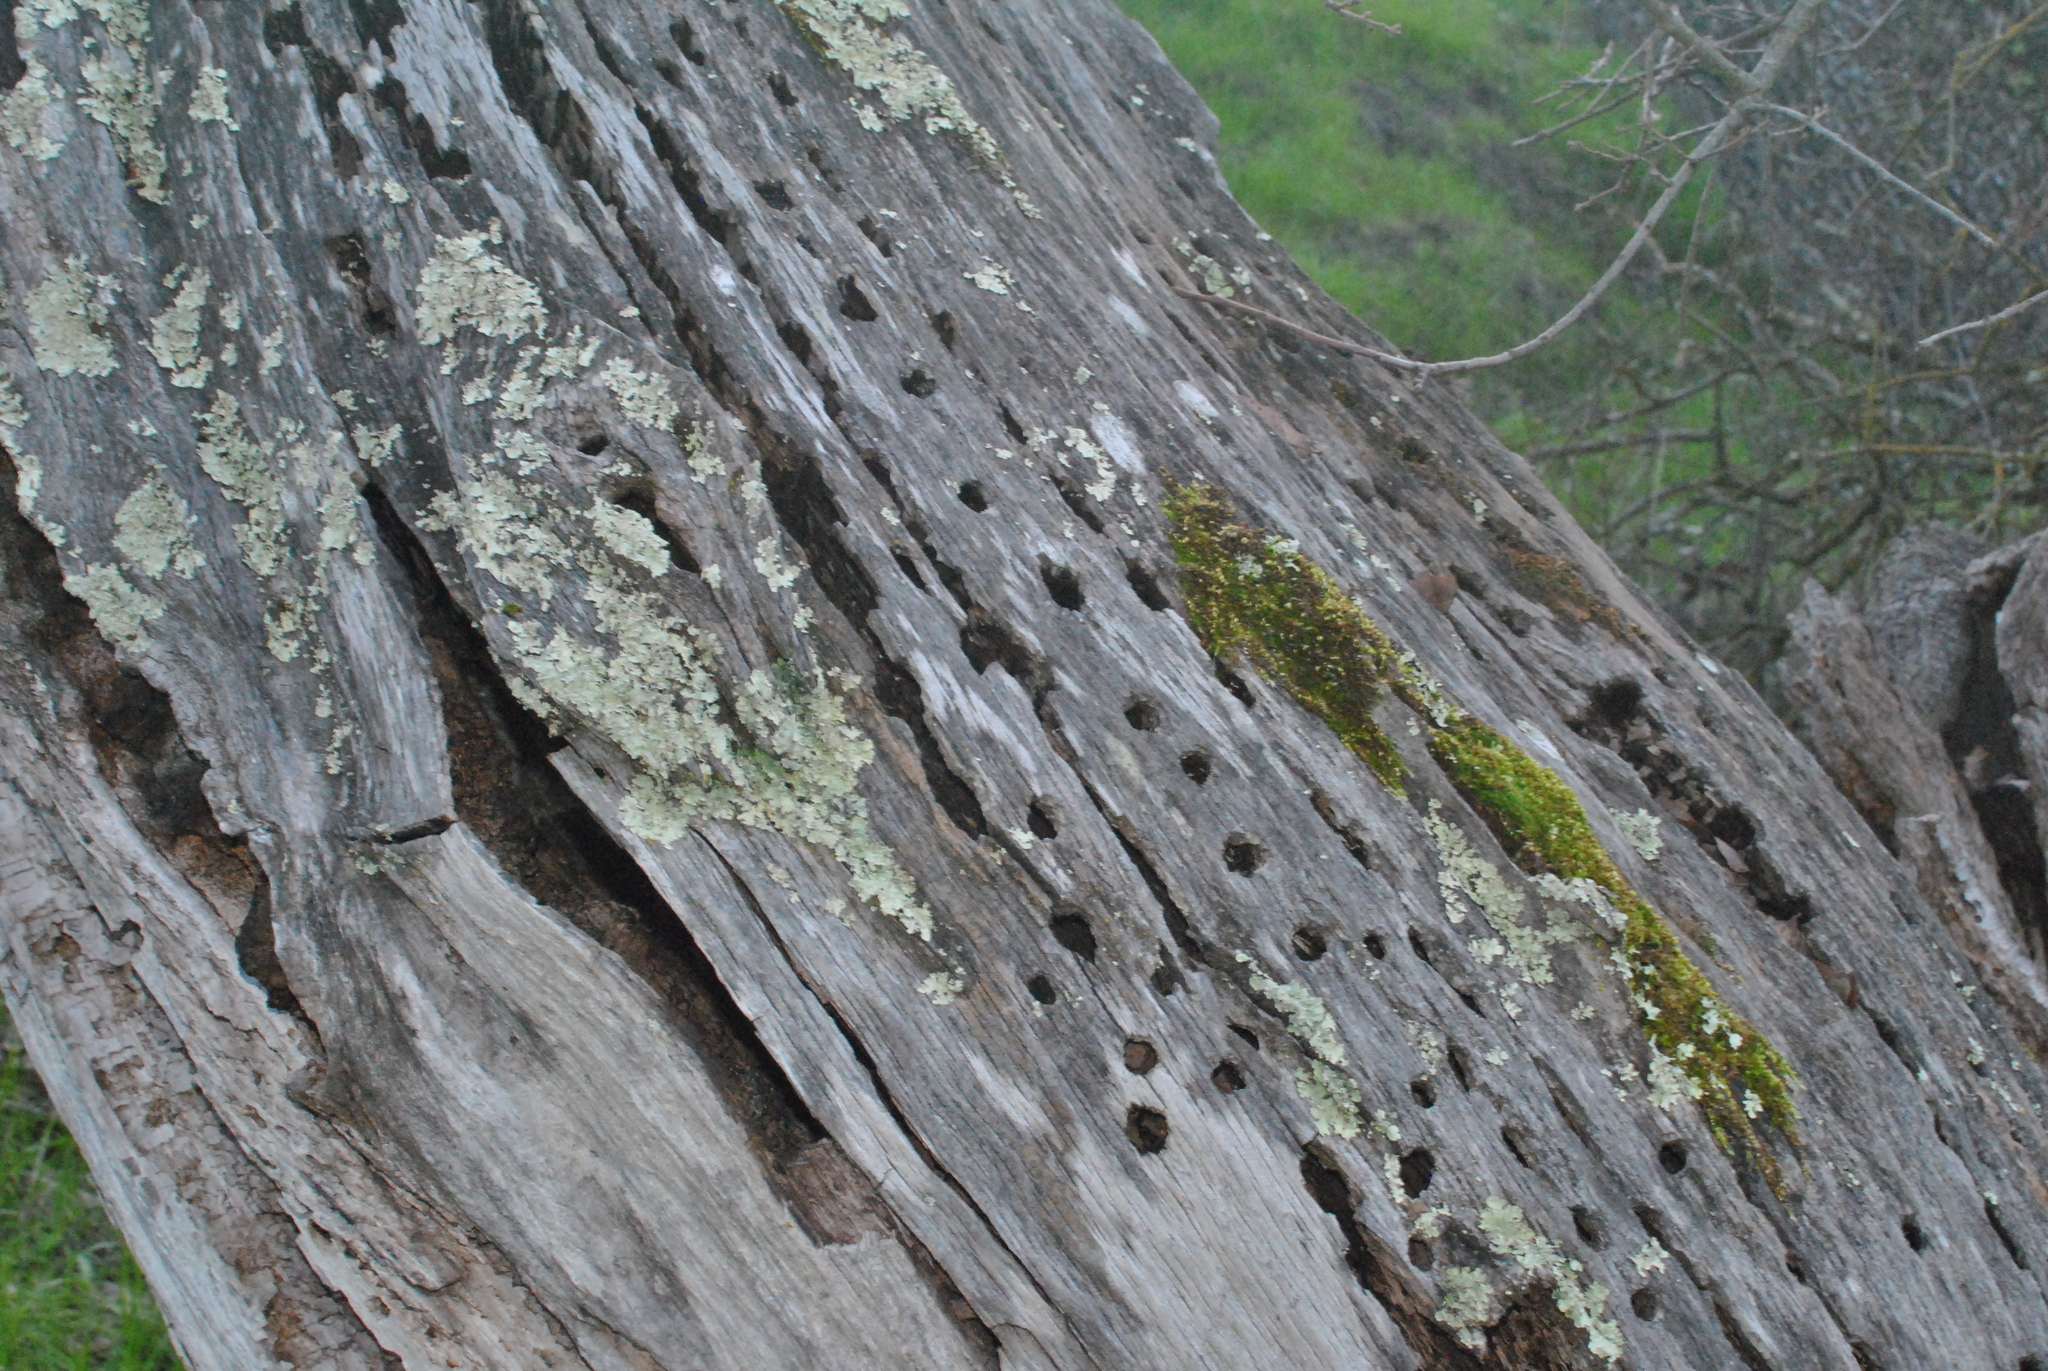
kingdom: Animalia
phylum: Chordata
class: Aves
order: Piciformes
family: Picidae
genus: Melanerpes
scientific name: Melanerpes formicivorus
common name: Acorn woodpecker
